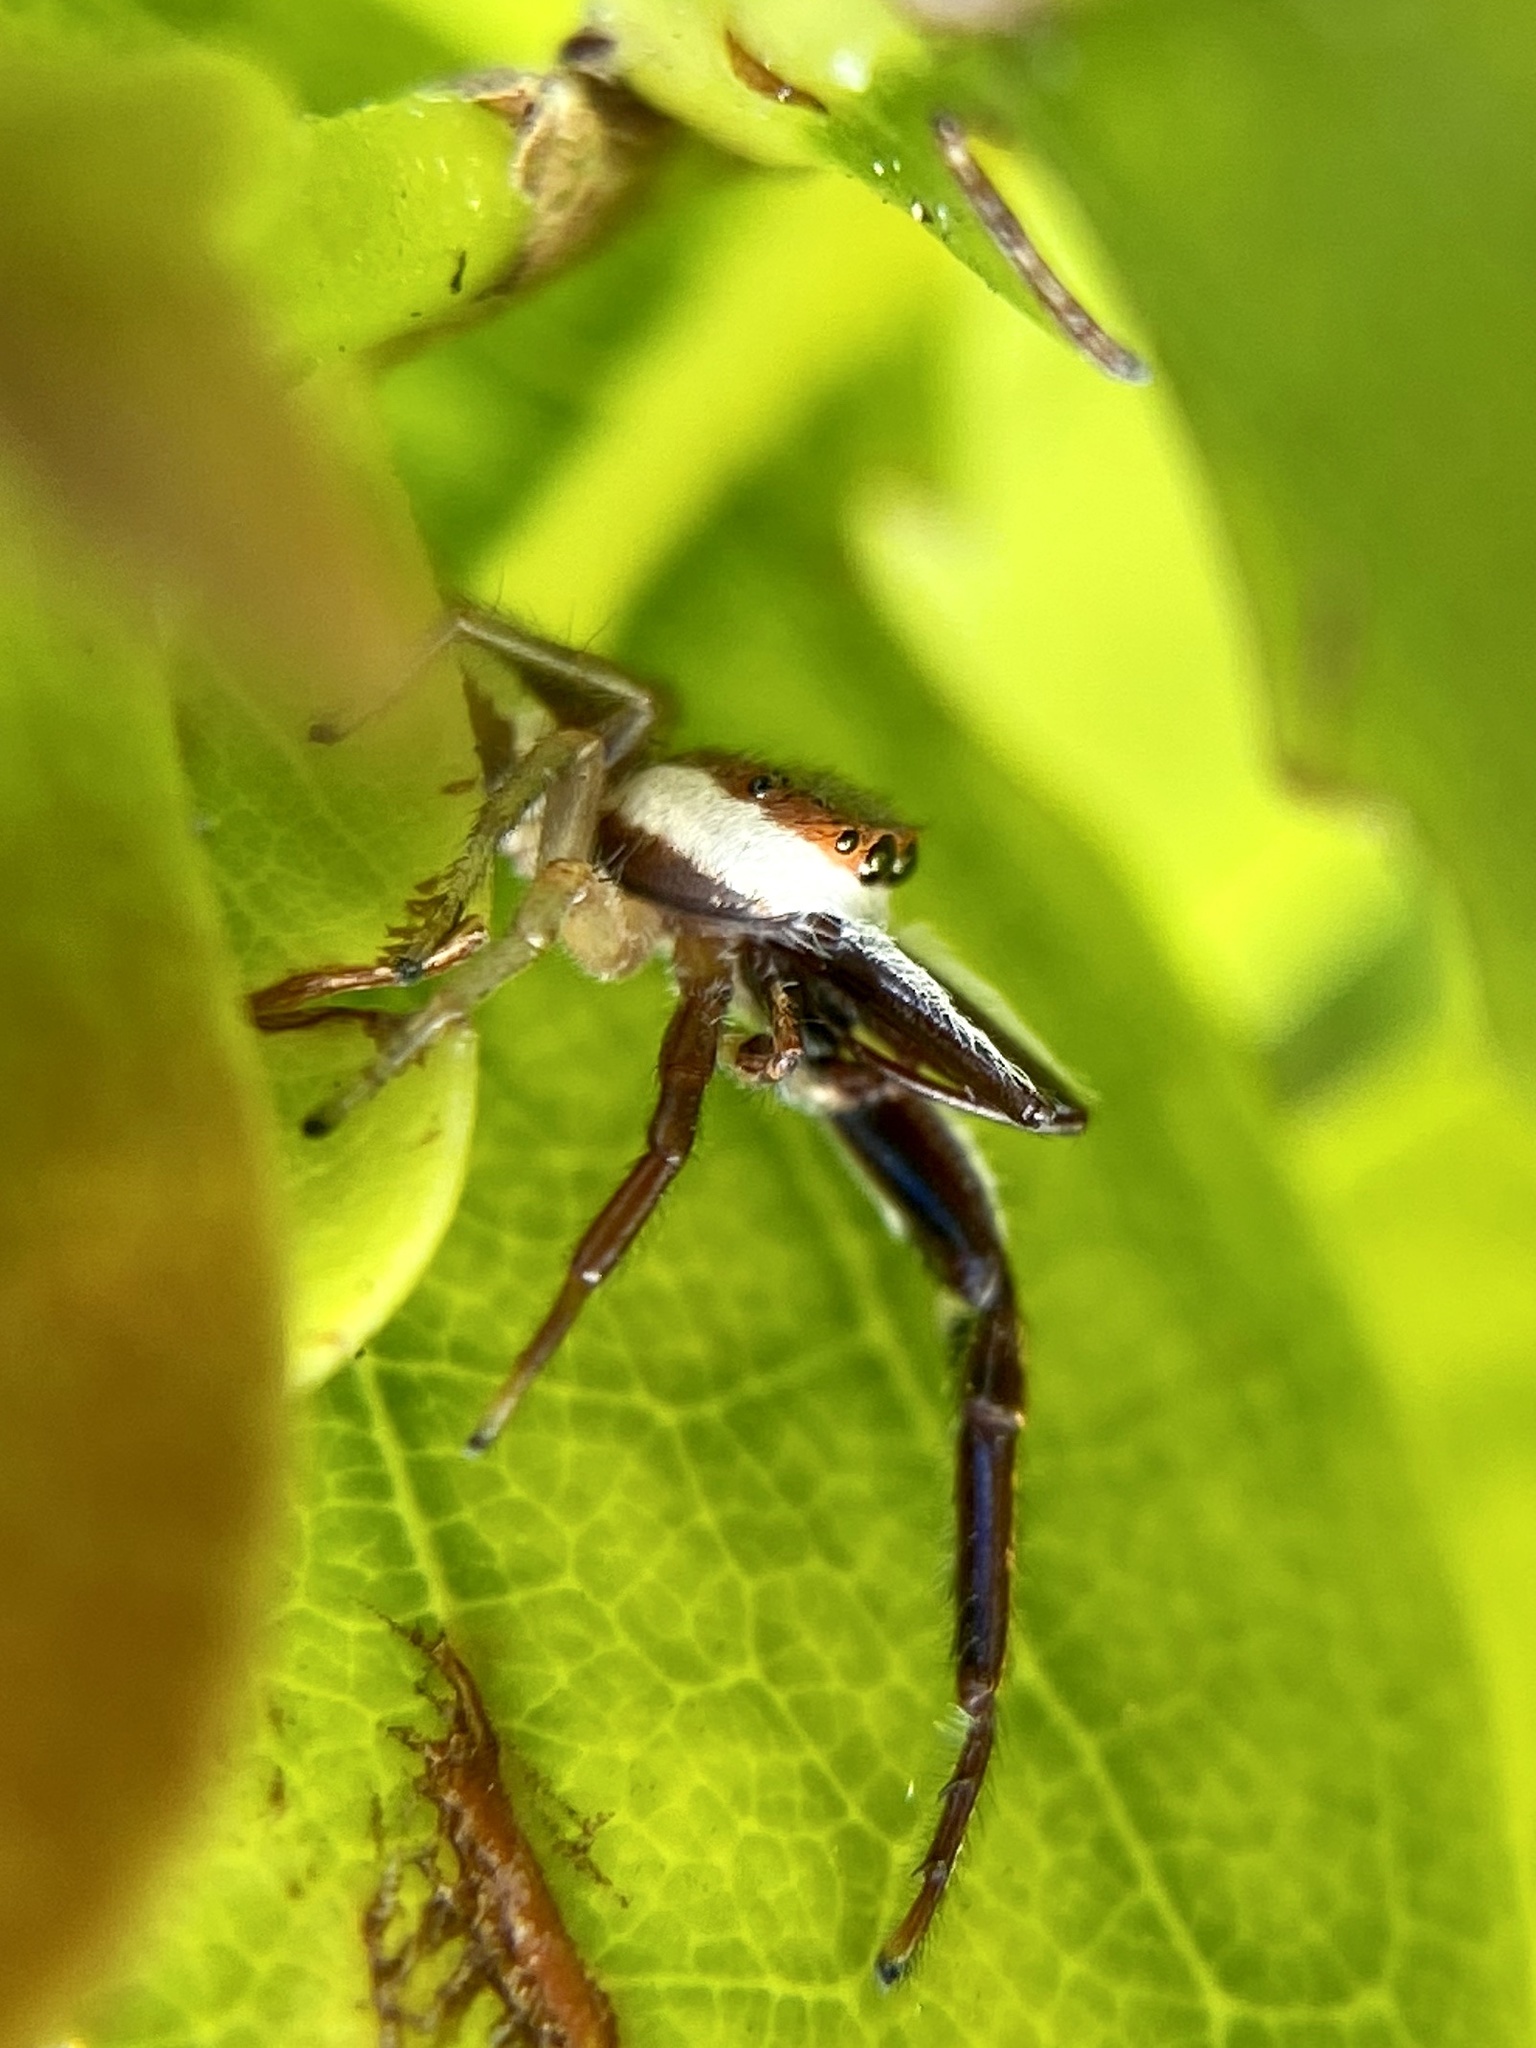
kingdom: Animalia
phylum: Arthropoda
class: Arachnida
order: Araneae
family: Salticidae
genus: Hentzia
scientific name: Hentzia palmarum
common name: Common hentz jumping spider
